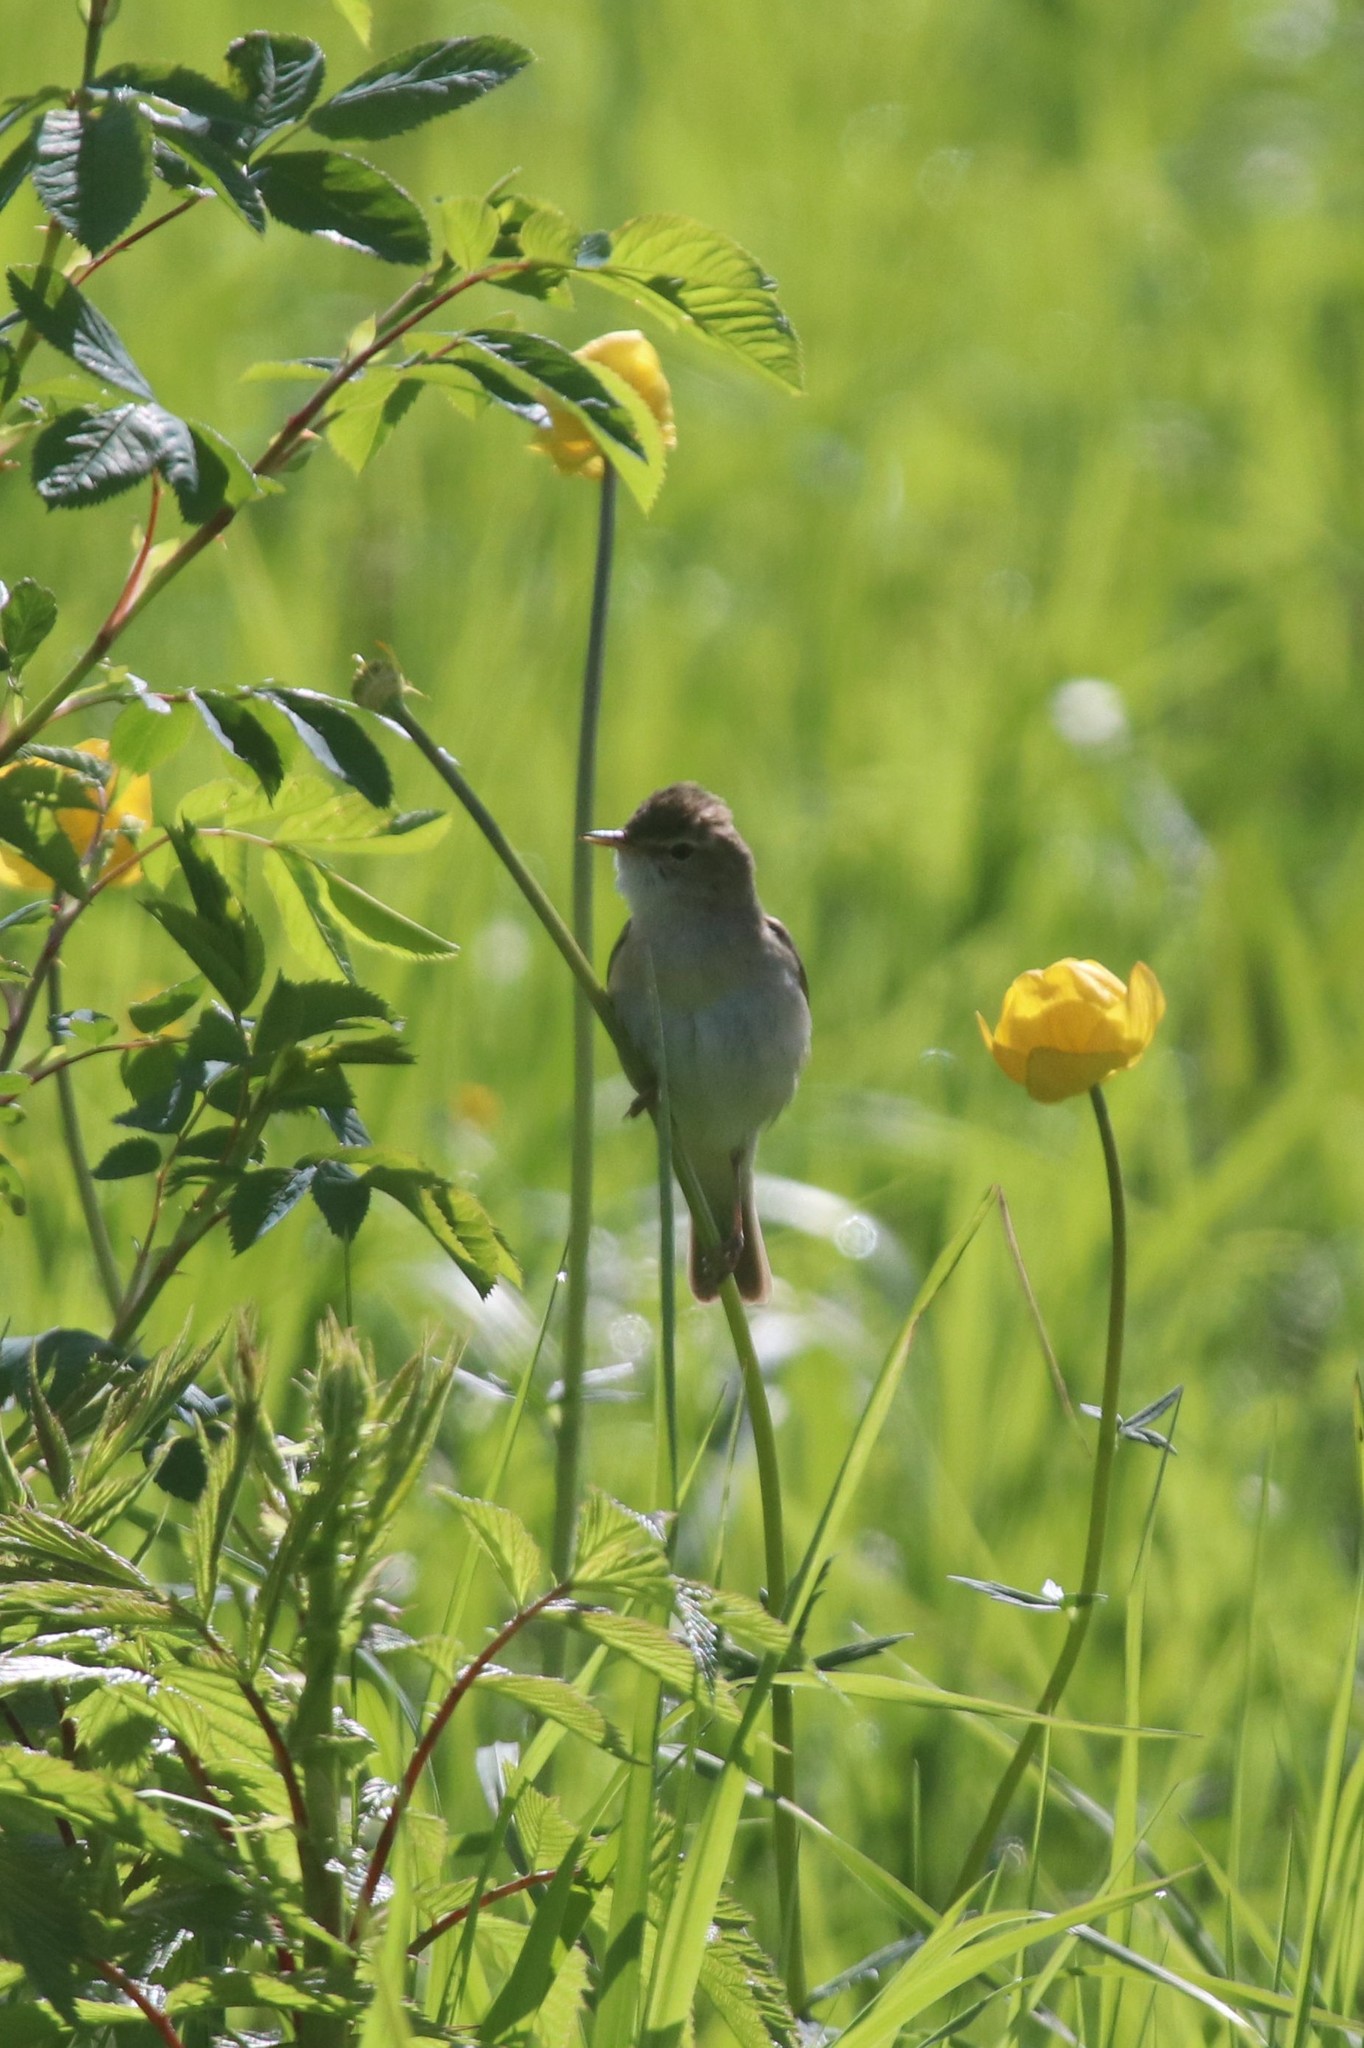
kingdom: Animalia
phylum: Chordata
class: Aves
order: Passeriformes
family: Acrocephalidae
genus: Iduna
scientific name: Iduna caligata
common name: Booted warbler
